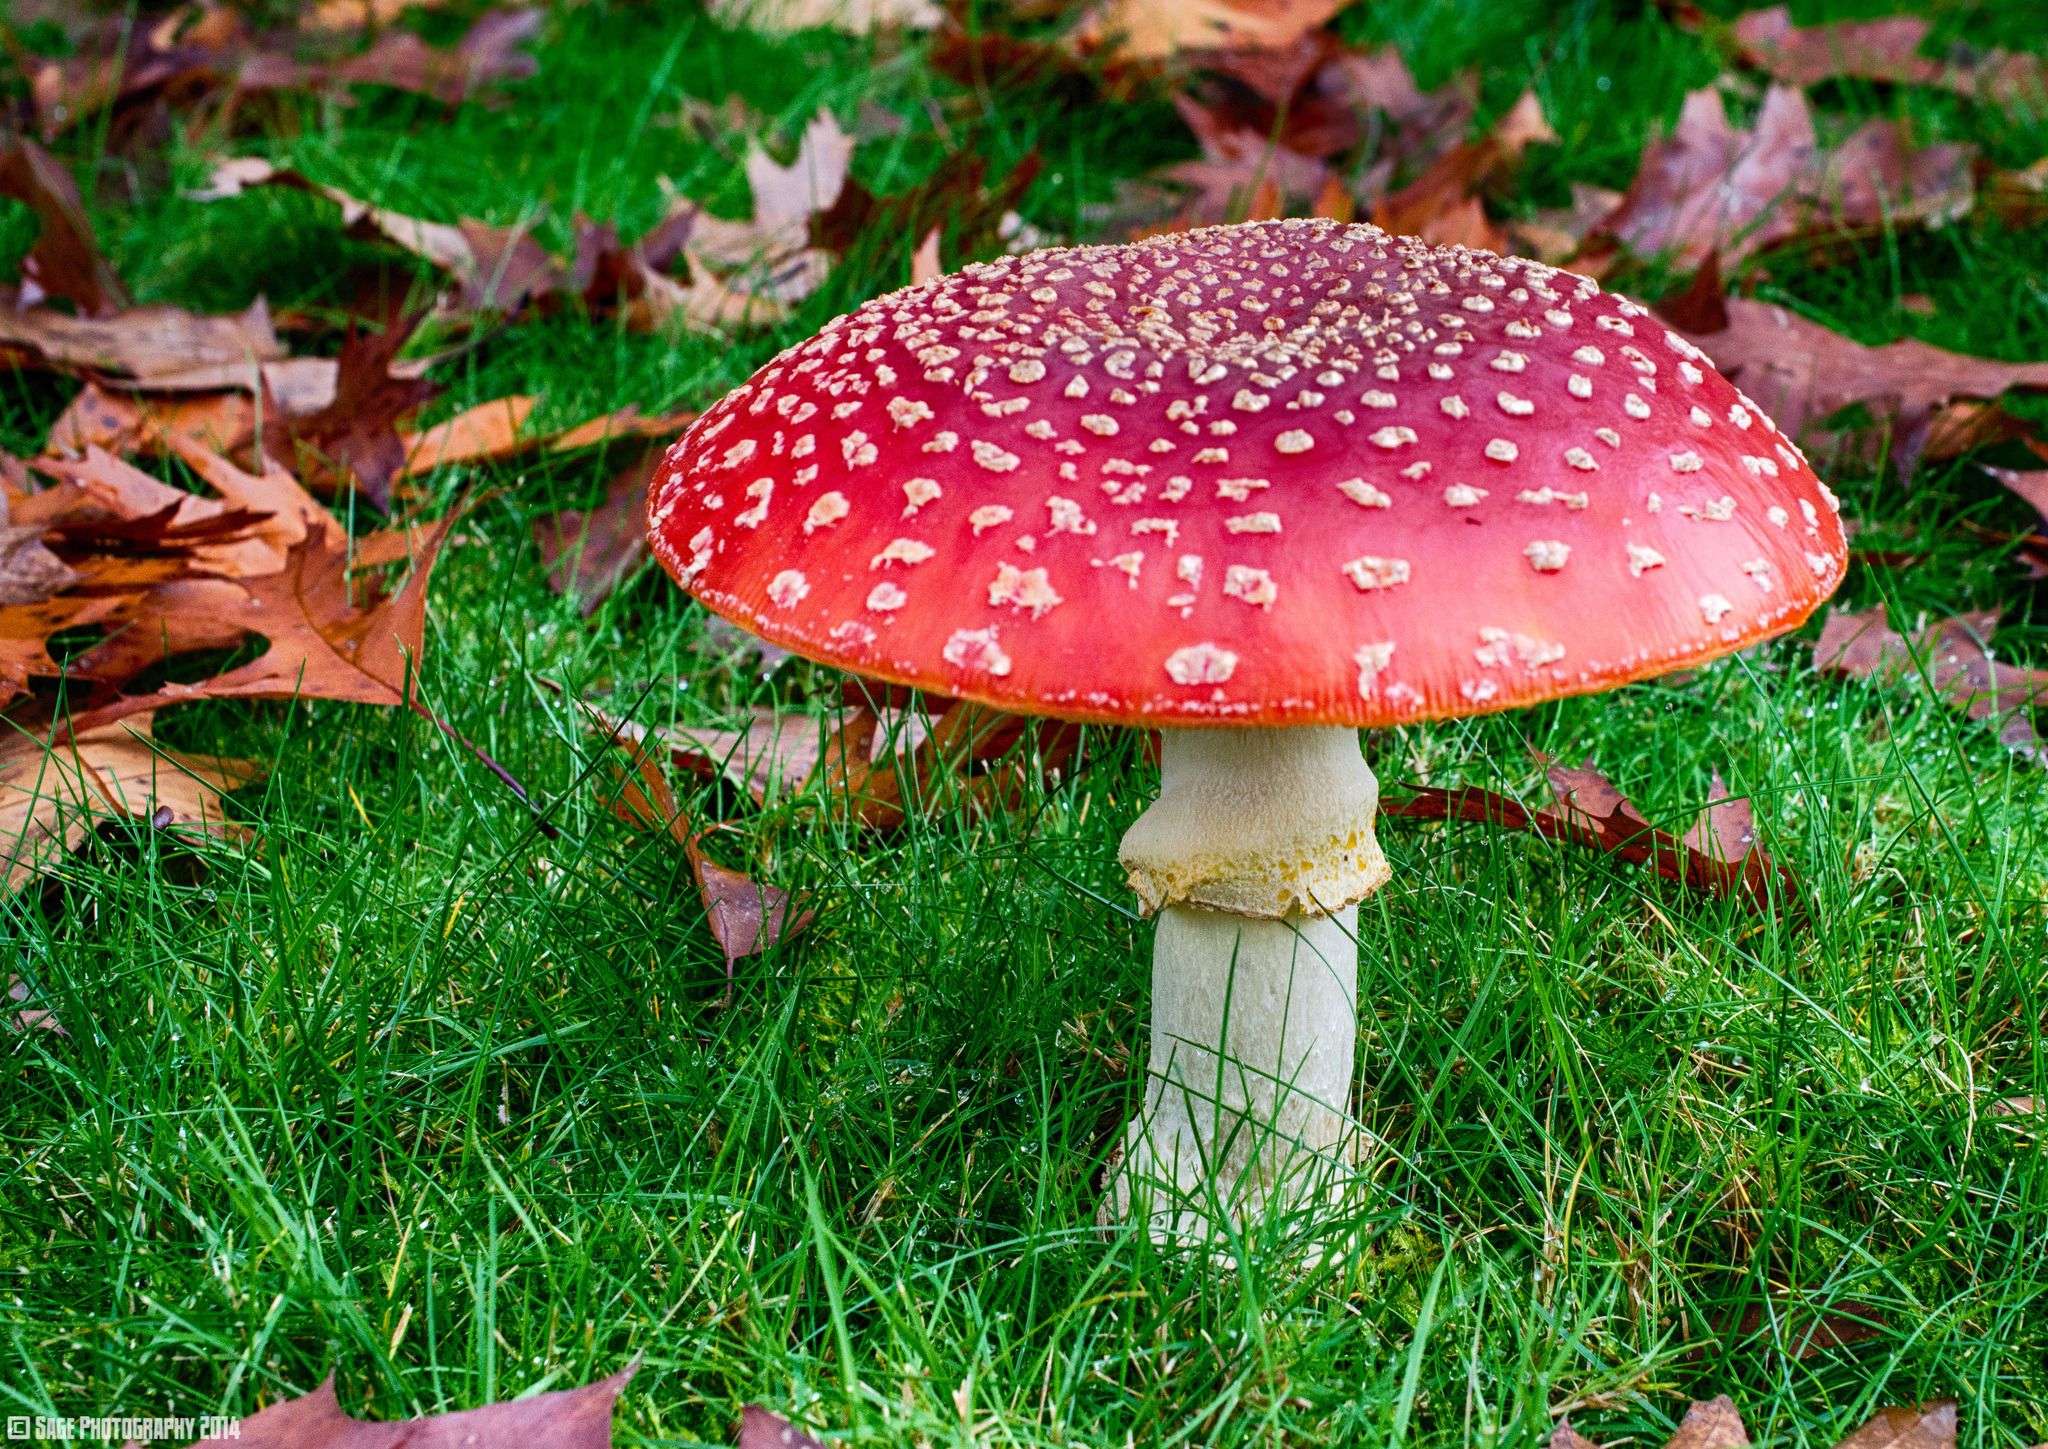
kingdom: Fungi
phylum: Basidiomycota
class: Agaricomycetes
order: Agaricales
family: Amanitaceae
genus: Amanita
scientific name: Amanita muscaria
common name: Fly agaric
